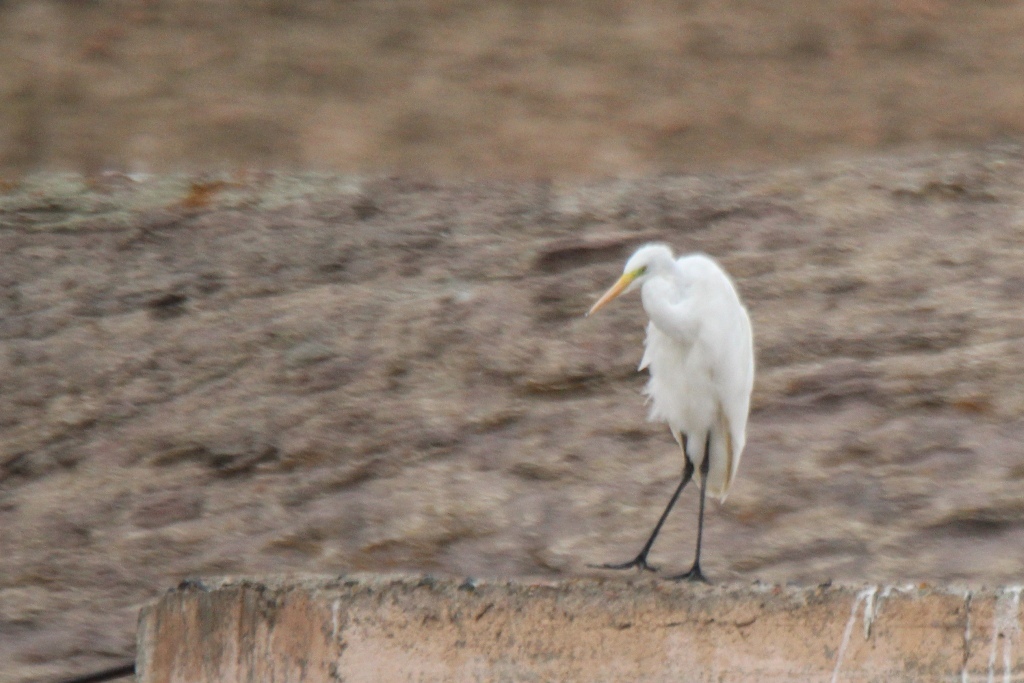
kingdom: Animalia
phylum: Chordata
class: Aves
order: Pelecaniformes
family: Ardeidae
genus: Ardea
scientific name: Ardea alba
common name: Great egret
